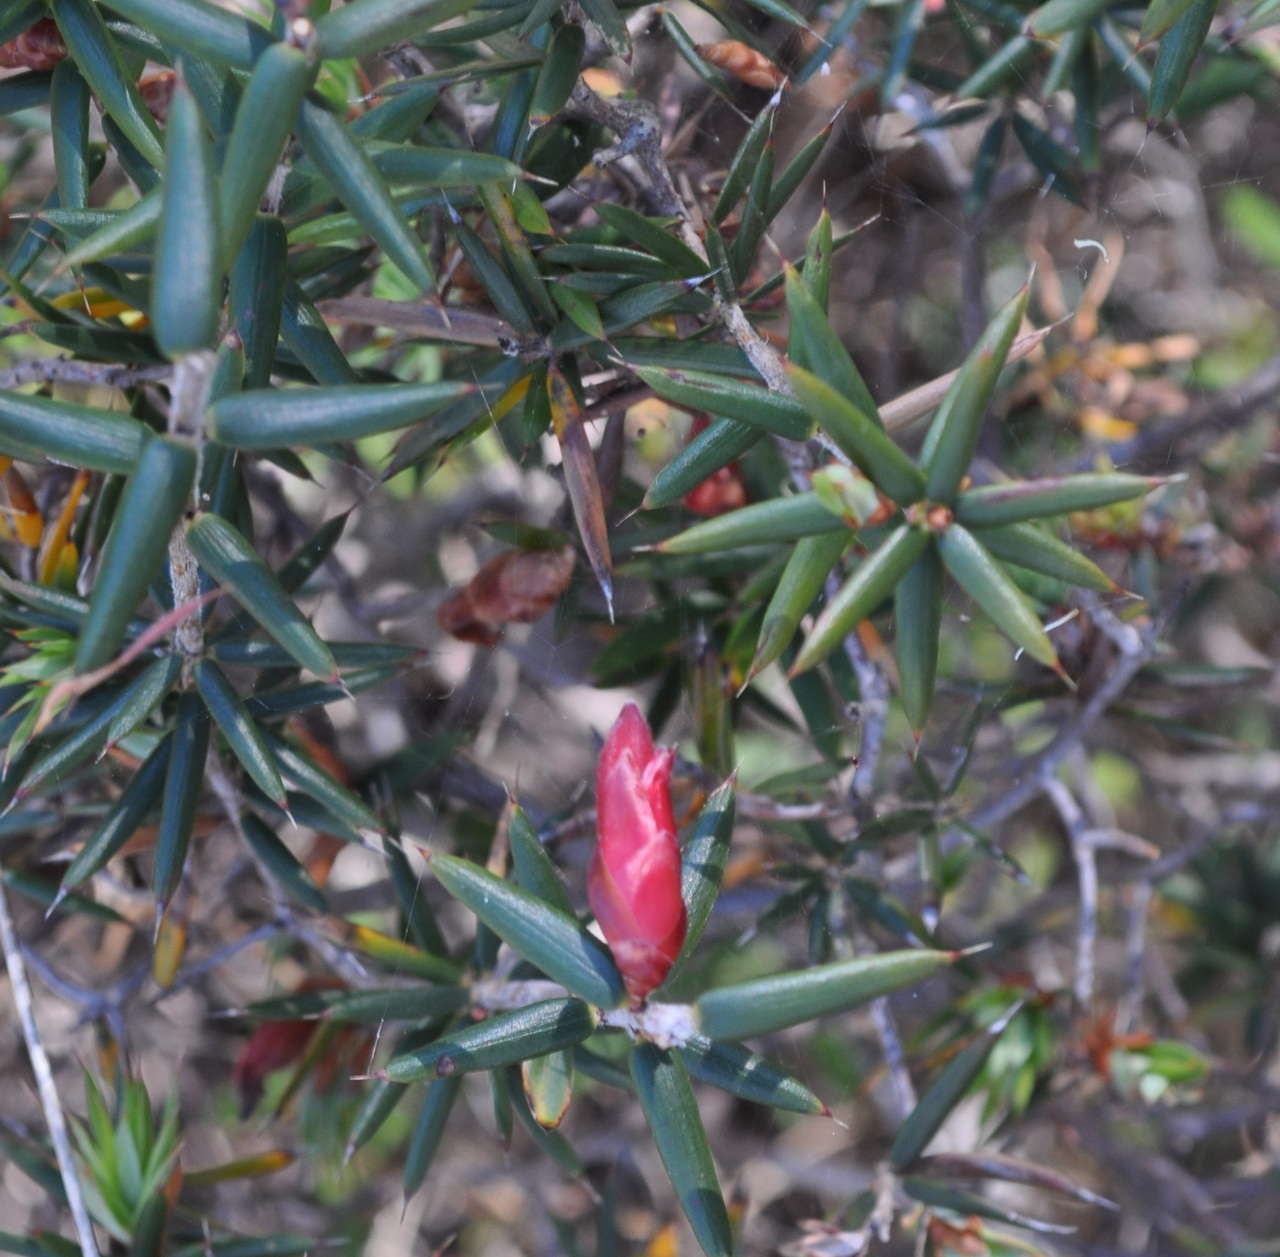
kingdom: Plantae
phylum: Tracheophyta
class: Magnoliopsida
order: Ericales
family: Ericaceae
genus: Stenanthera
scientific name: Stenanthera conostephioides
